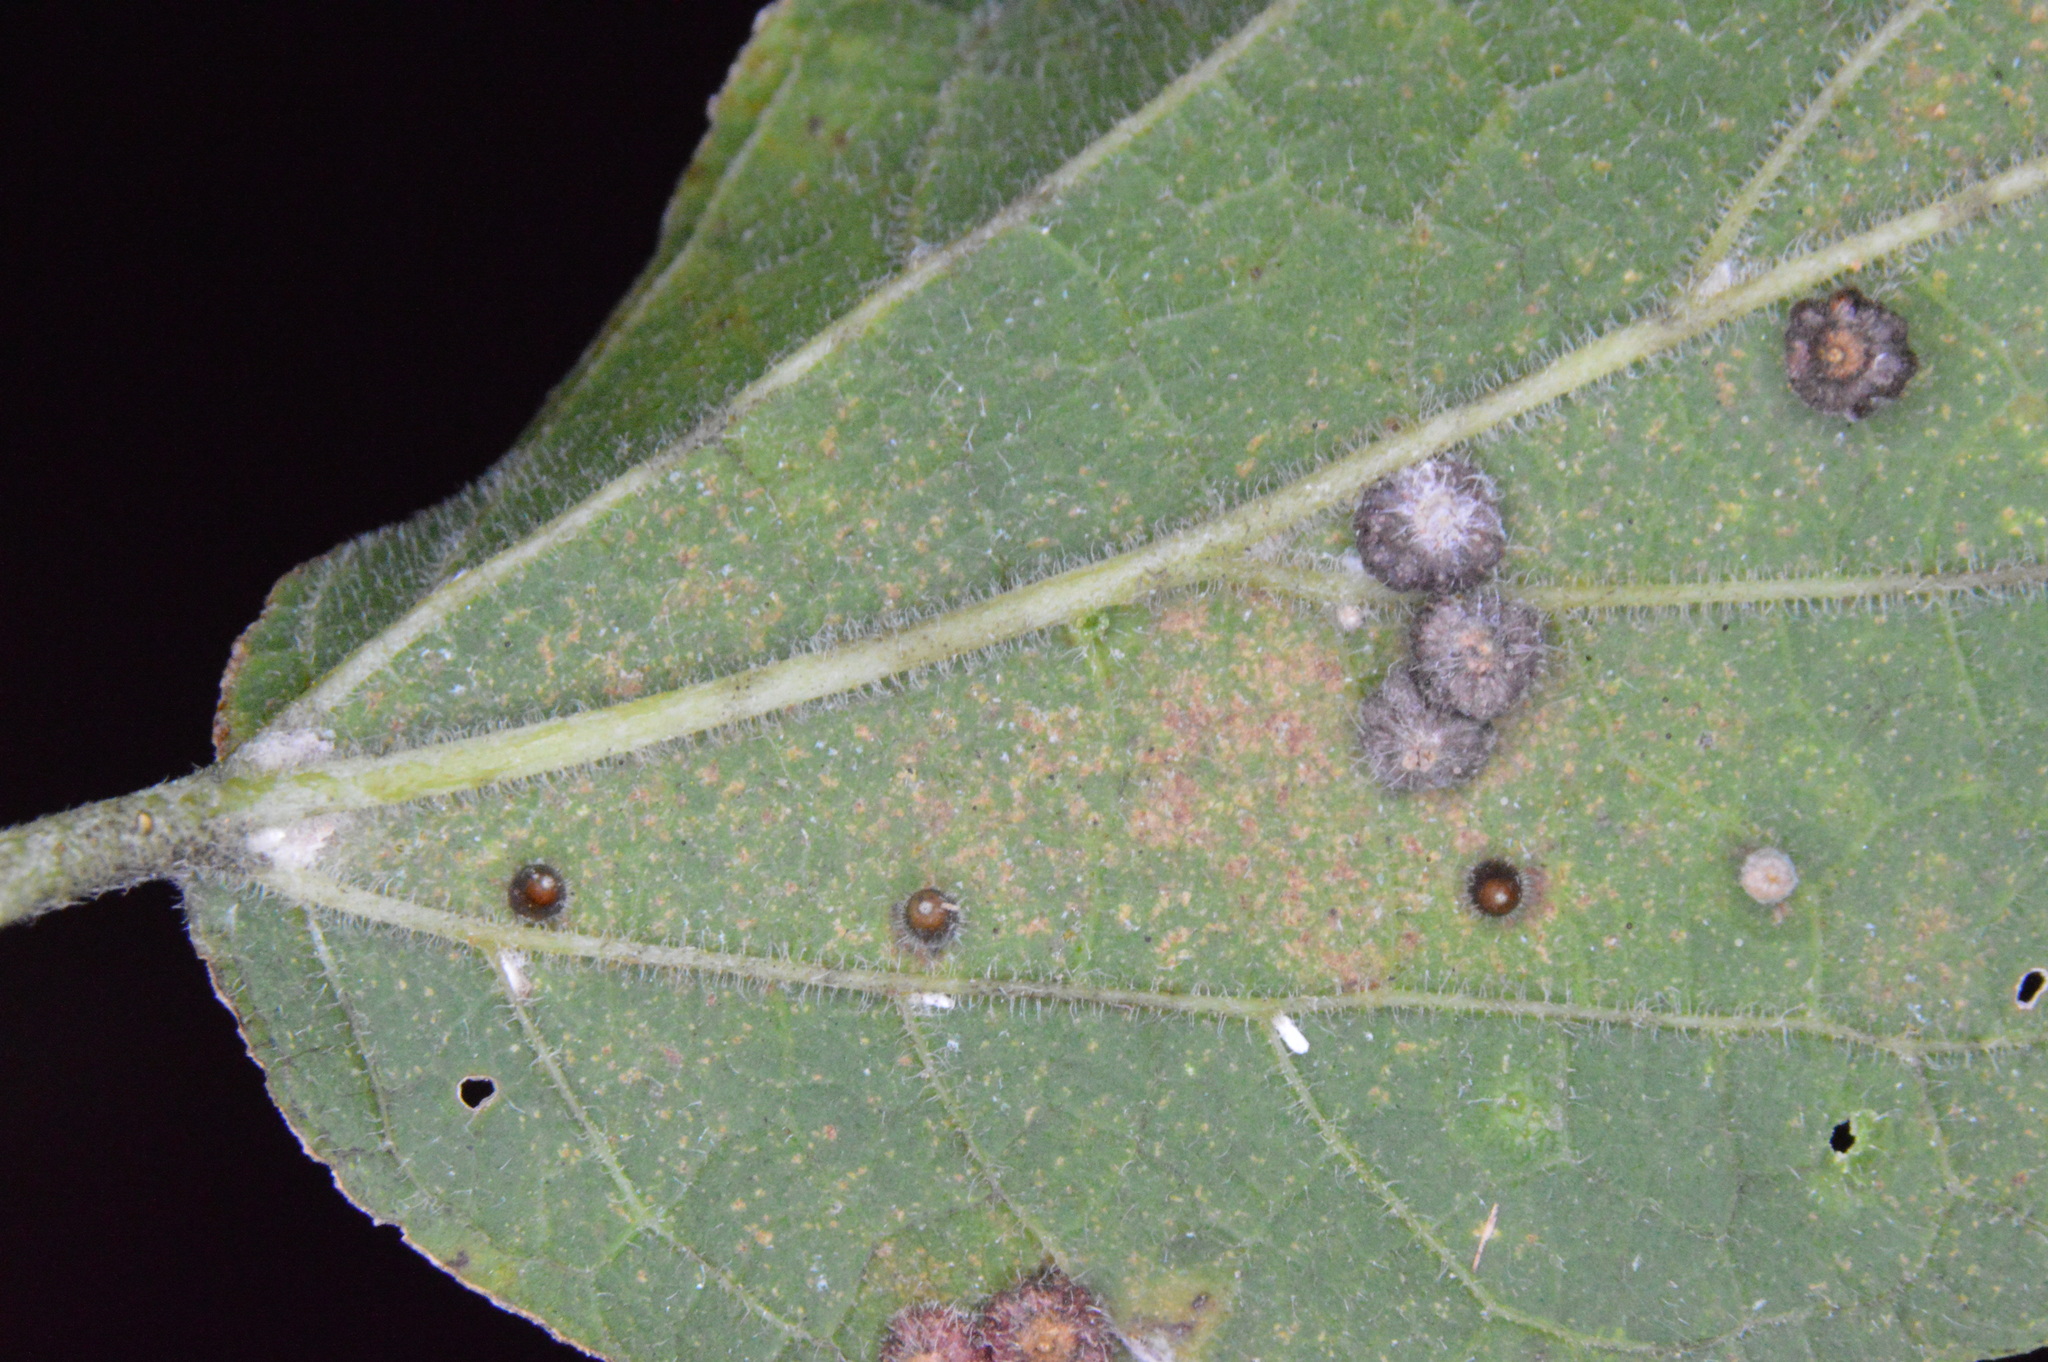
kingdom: Animalia
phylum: Arthropoda
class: Insecta
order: Diptera
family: Cecidomyiidae
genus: Celticecis
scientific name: Celticecis cupiformis
